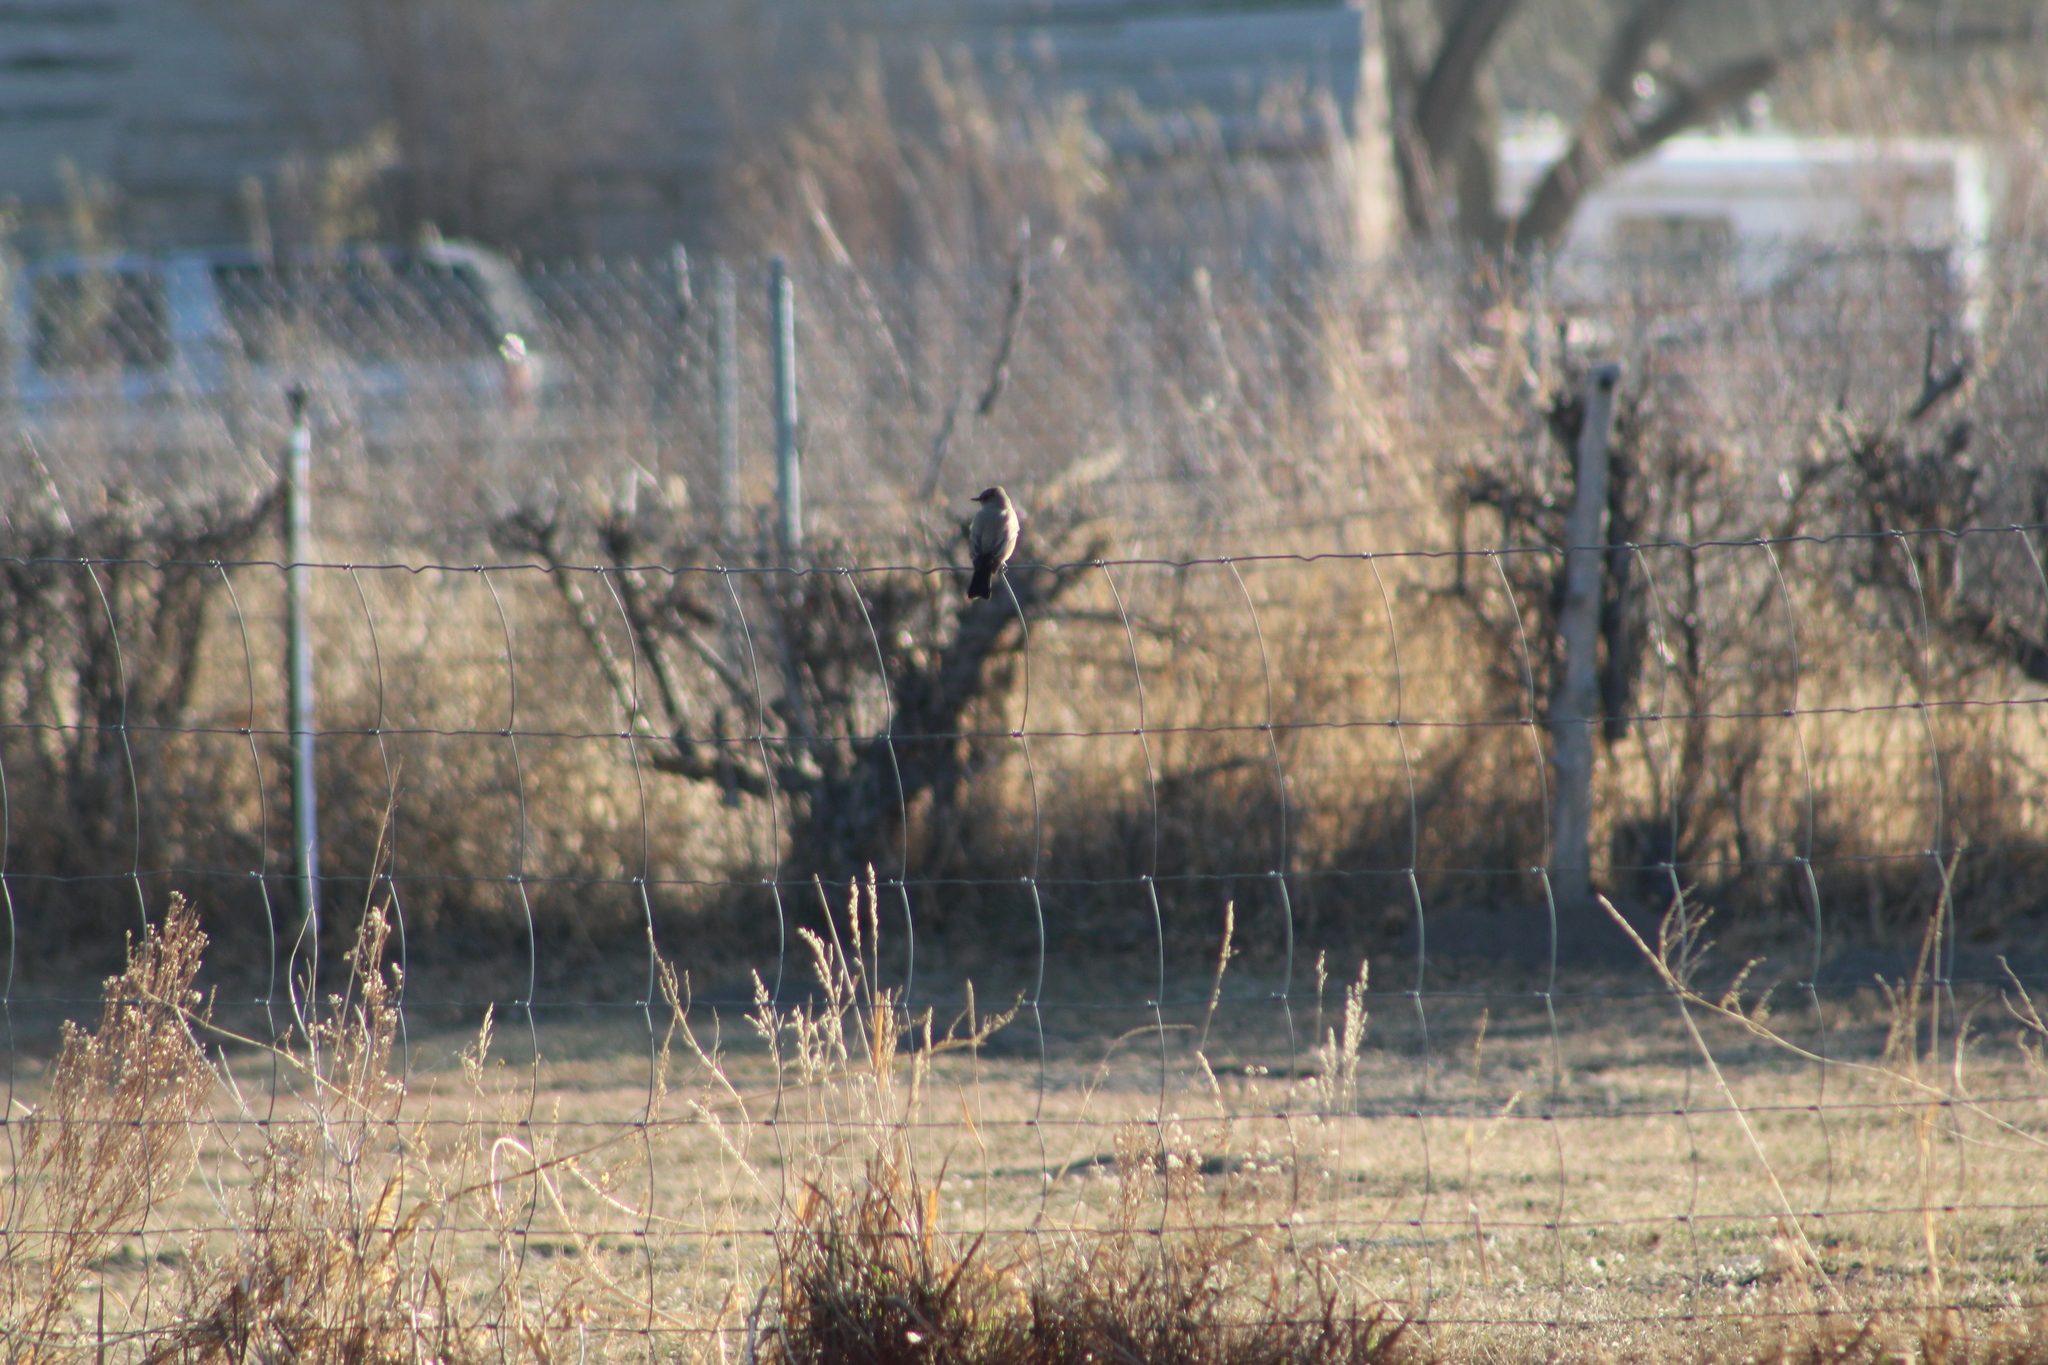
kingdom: Animalia
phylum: Chordata
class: Aves
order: Passeriformes
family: Tyrannidae
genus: Sayornis
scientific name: Sayornis saya
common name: Say's phoebe
